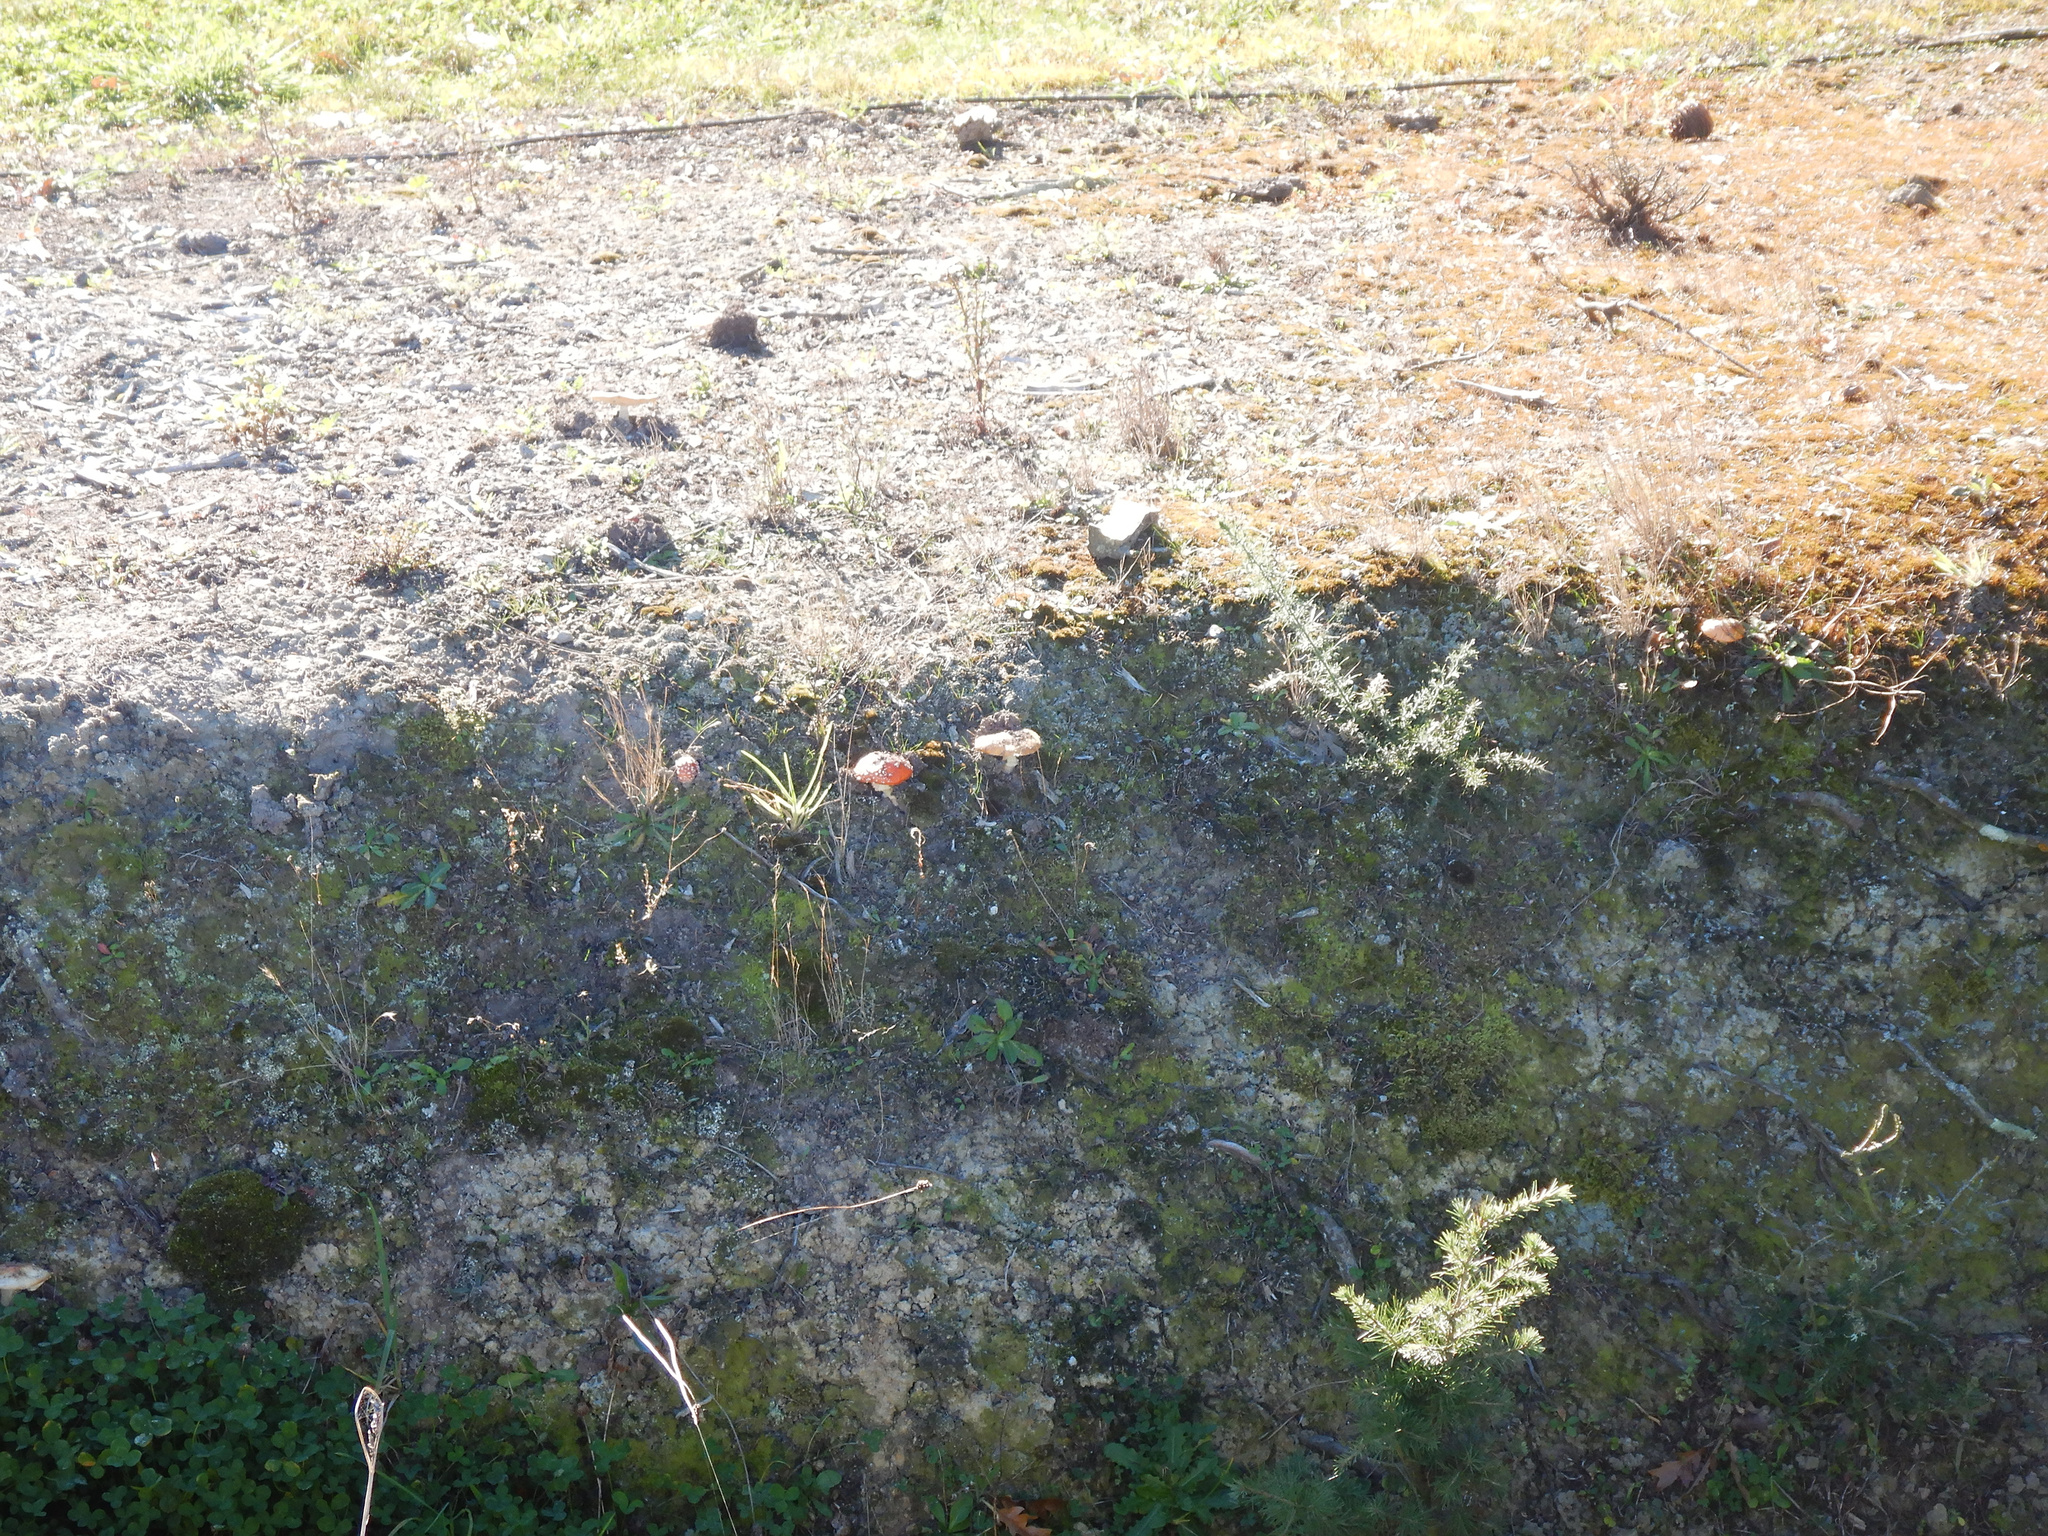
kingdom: Fungi
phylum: Basidiomycota
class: Agaricomycetes
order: Agaricales
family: Amanitaceae
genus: Amanita
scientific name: Amanita muscaria
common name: Fly agaric
